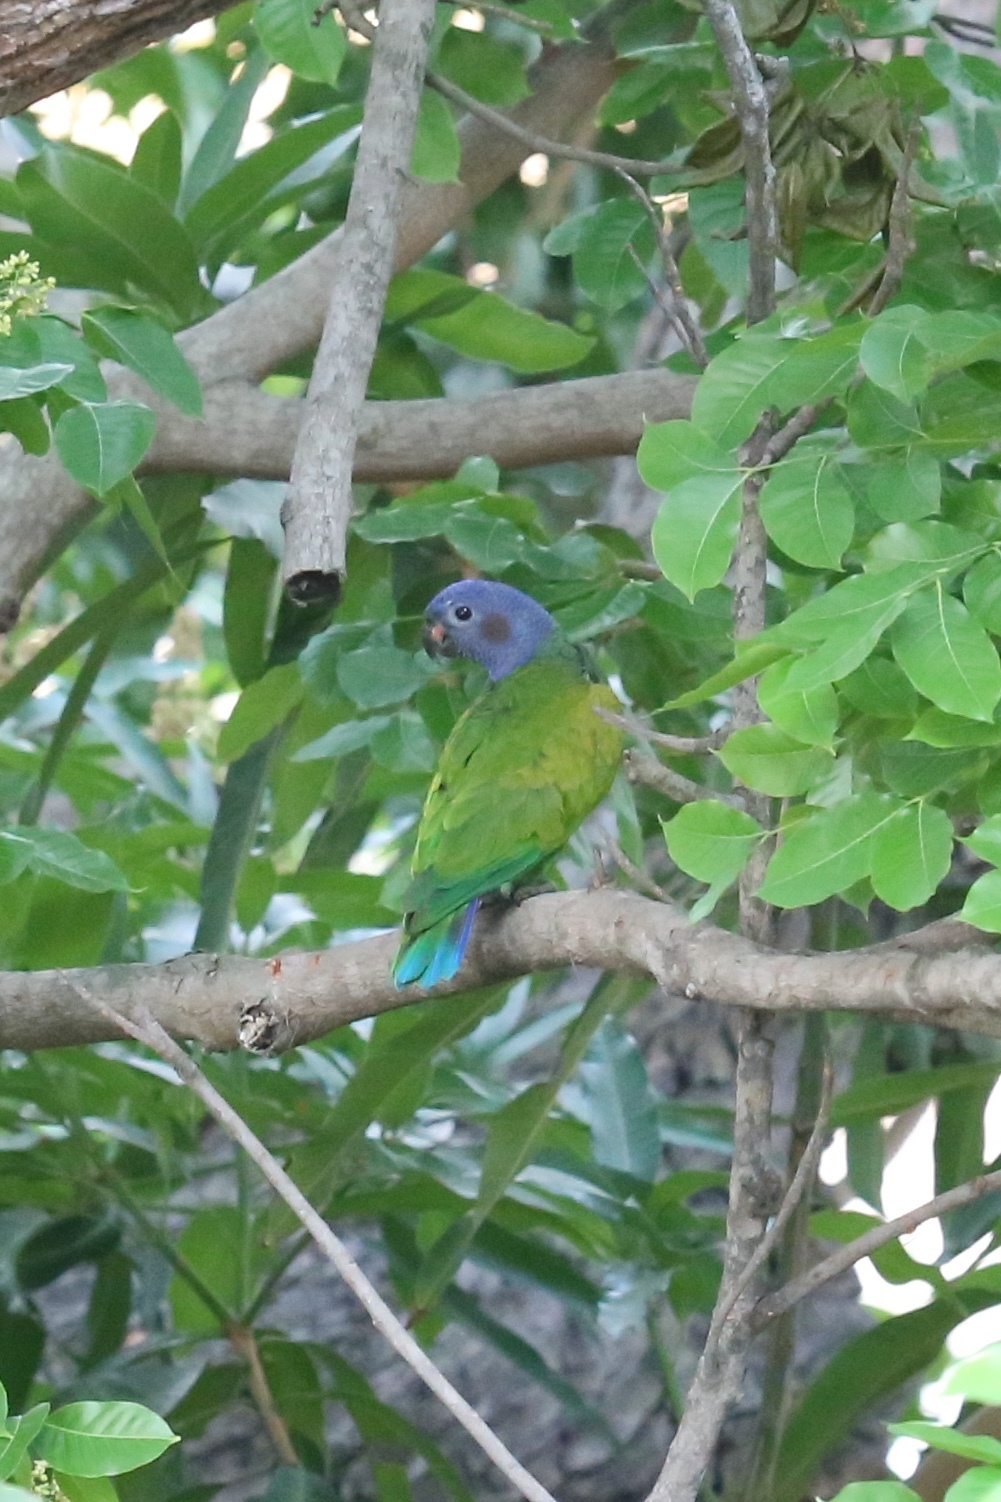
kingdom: Animalia
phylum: Chordata
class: Aves
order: Psittaciformes
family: Psittacidae
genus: Pionus
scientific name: Pionus menstruus
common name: Blue-headed parrot
